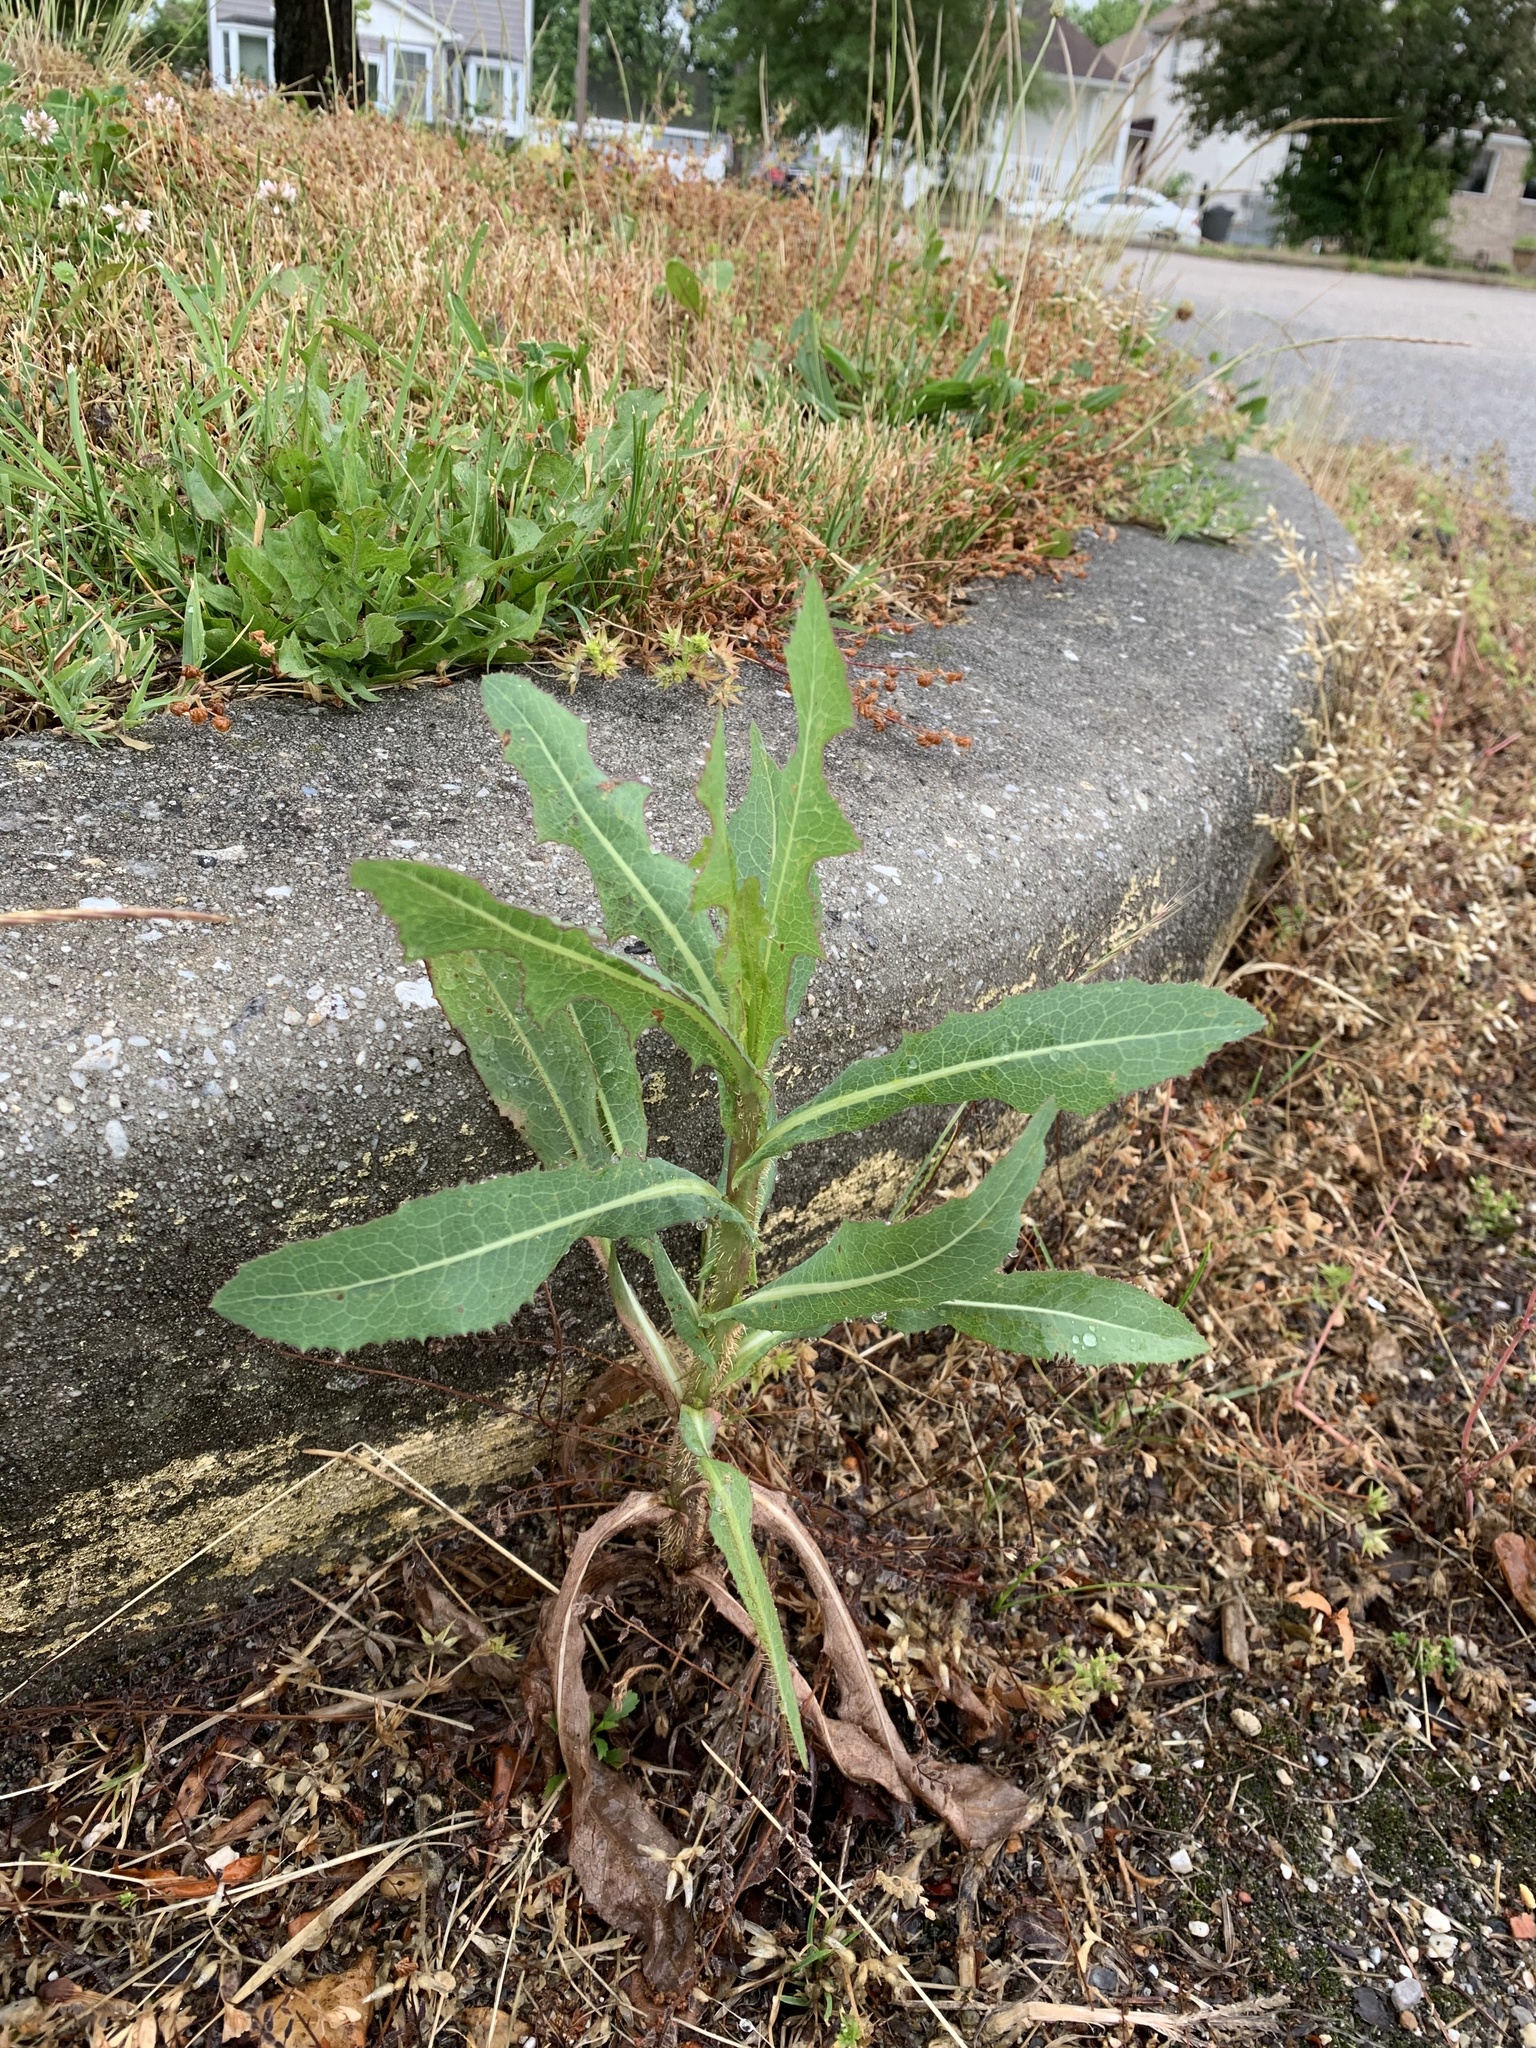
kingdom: Plantae
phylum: Tracheophyta
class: Magnoliopsida
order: Asterales
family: Asteraceae
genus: Lactuca
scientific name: Lactuca serriola
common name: Prickly lettuce
